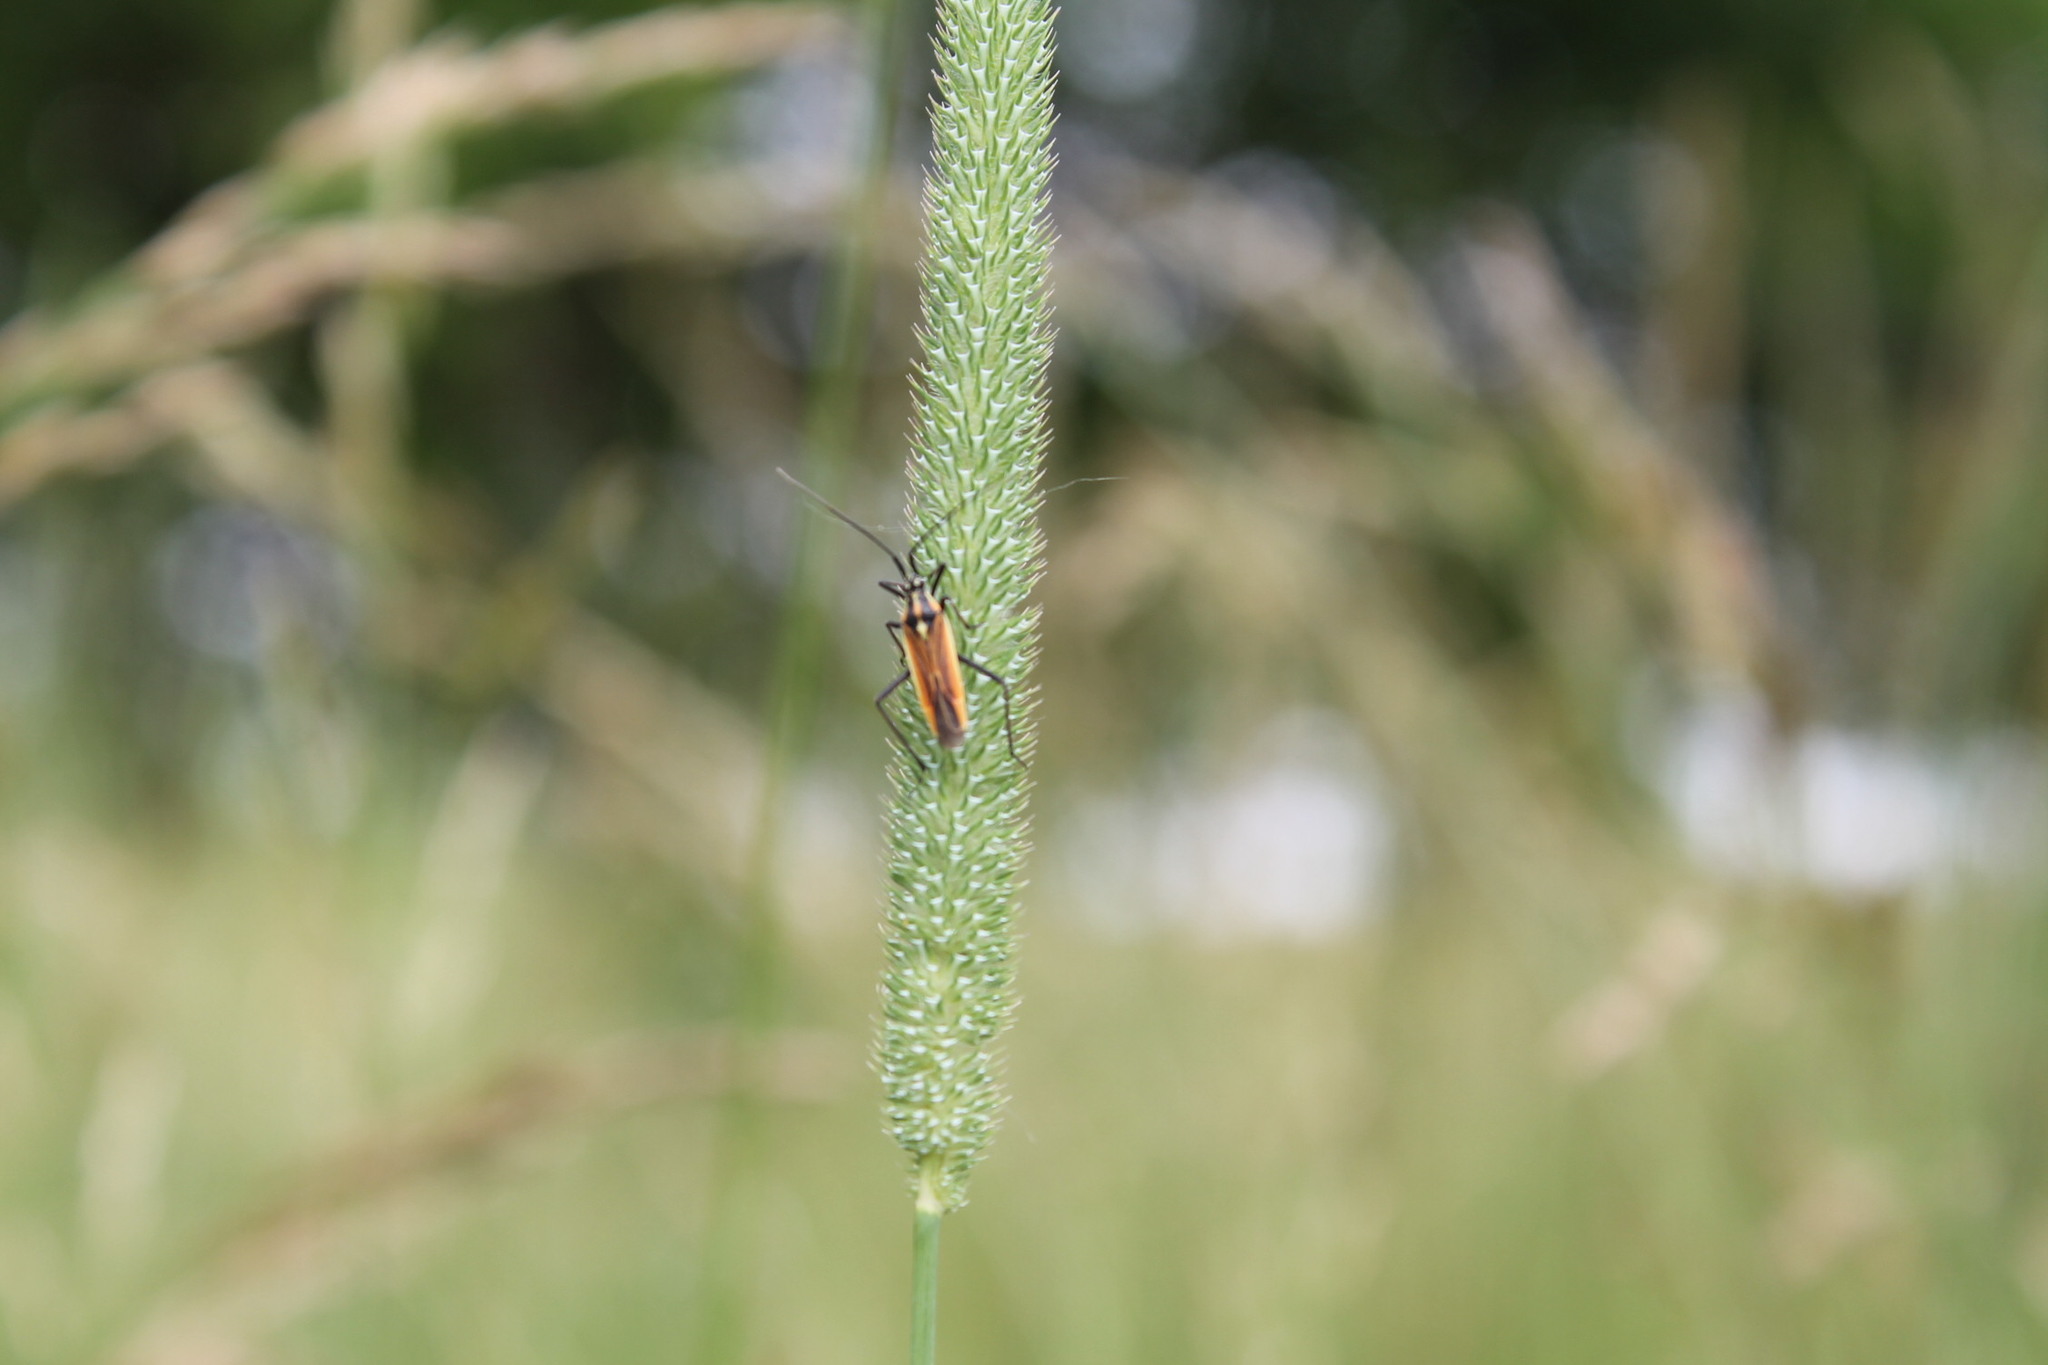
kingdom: Animalia
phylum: Arthropoda
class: Insecta
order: Hemiptera
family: Miridae
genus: Leptopterna
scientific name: Leptopterna dolabrata
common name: Meadow plant bug
